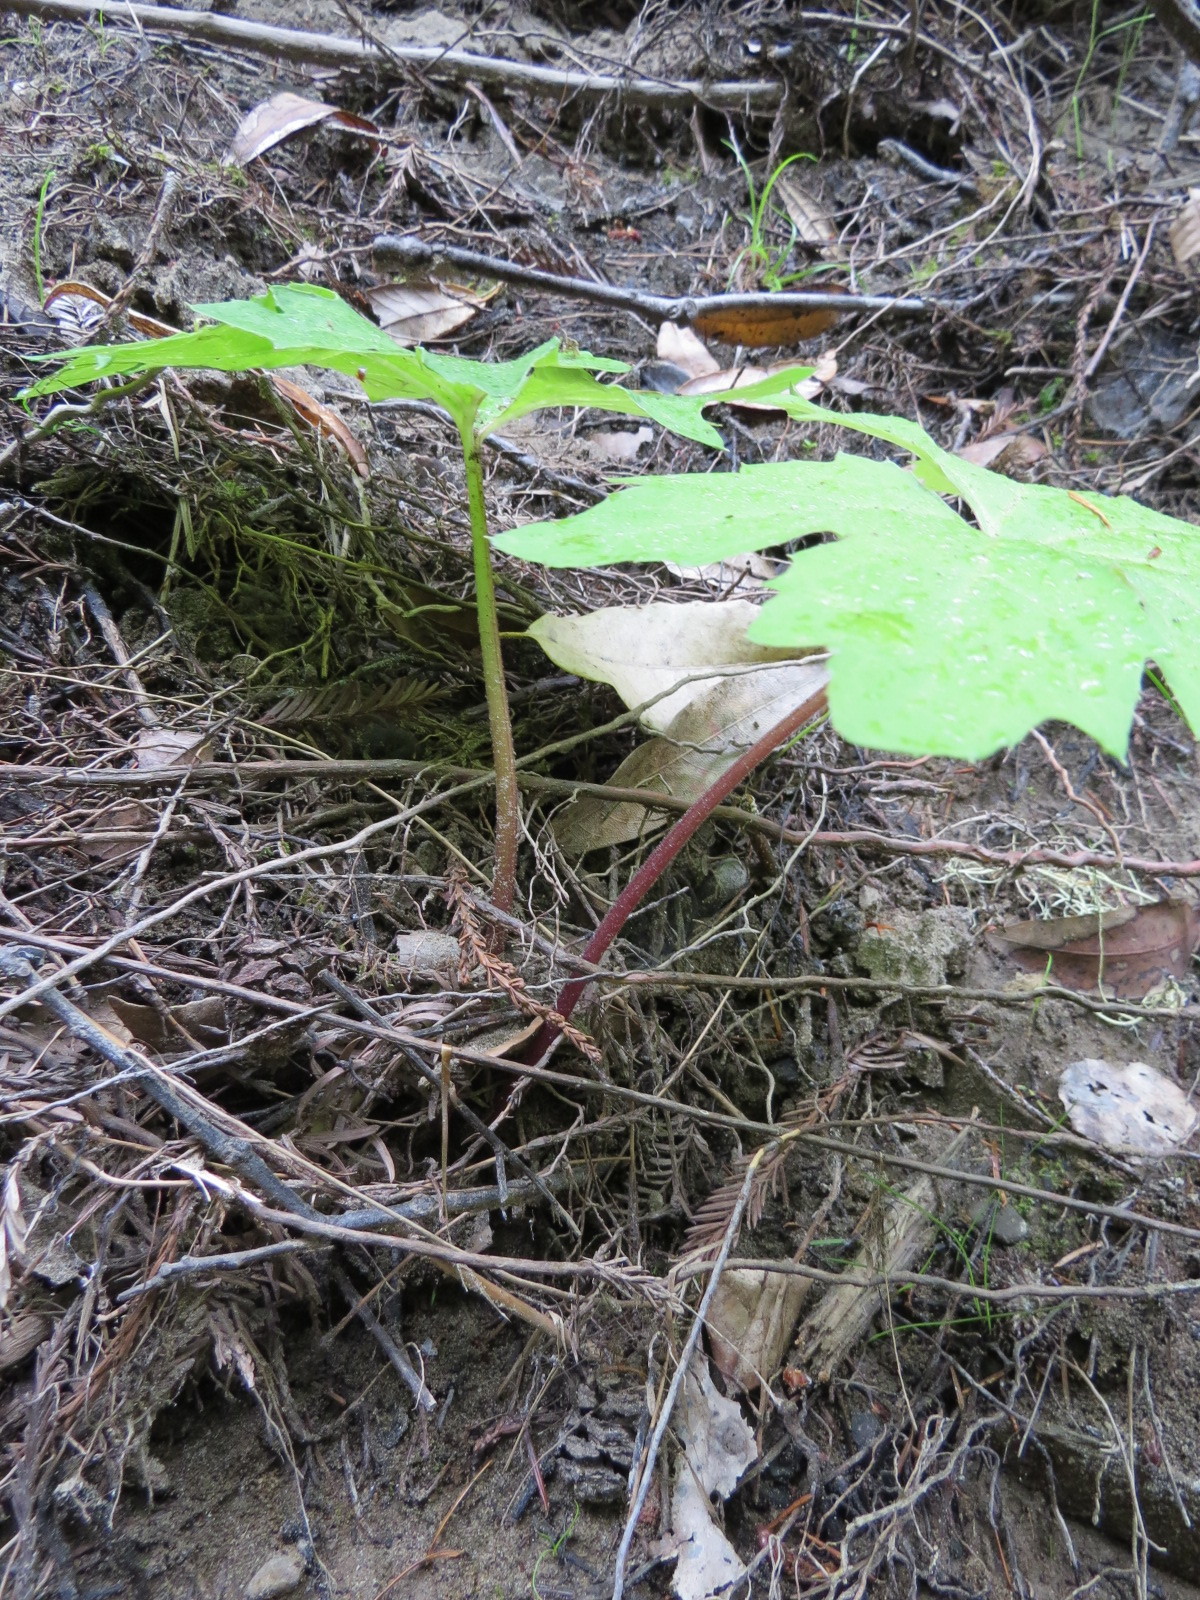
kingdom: Plantae
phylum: Tracheophyta
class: Magnoliopsida
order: Asterales
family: Asteraceae
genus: Petasites
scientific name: Petasites frigidus
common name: Arctic butterbur
